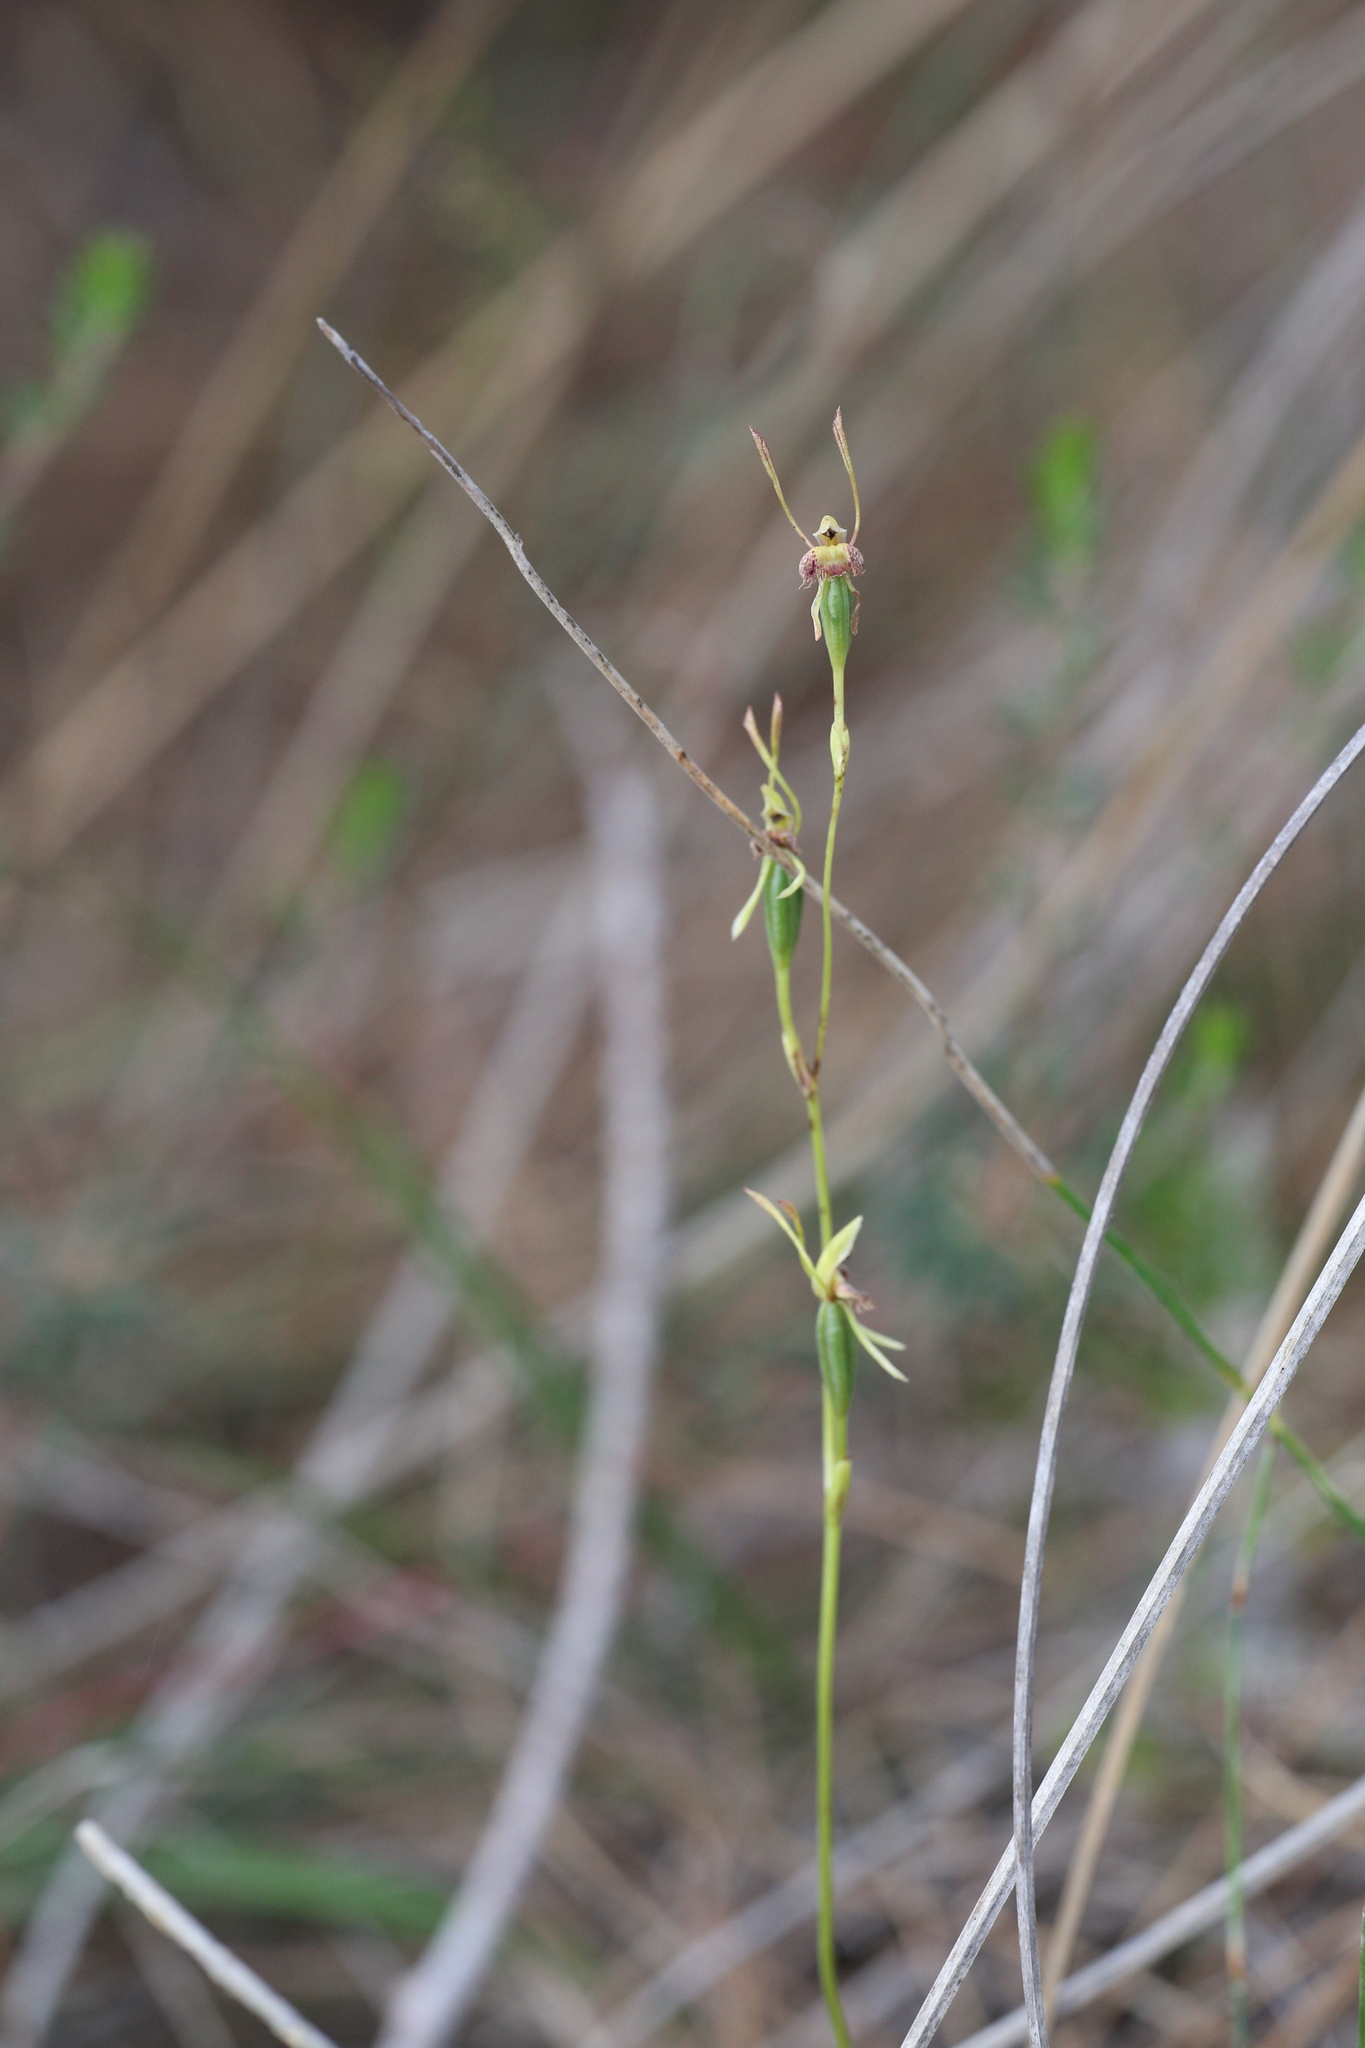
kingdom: Plantae
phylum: Tracheophyta
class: Liliopsida
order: Asparagales
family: Orchidaceae
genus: Leporella
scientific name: Leporella fimbriata
